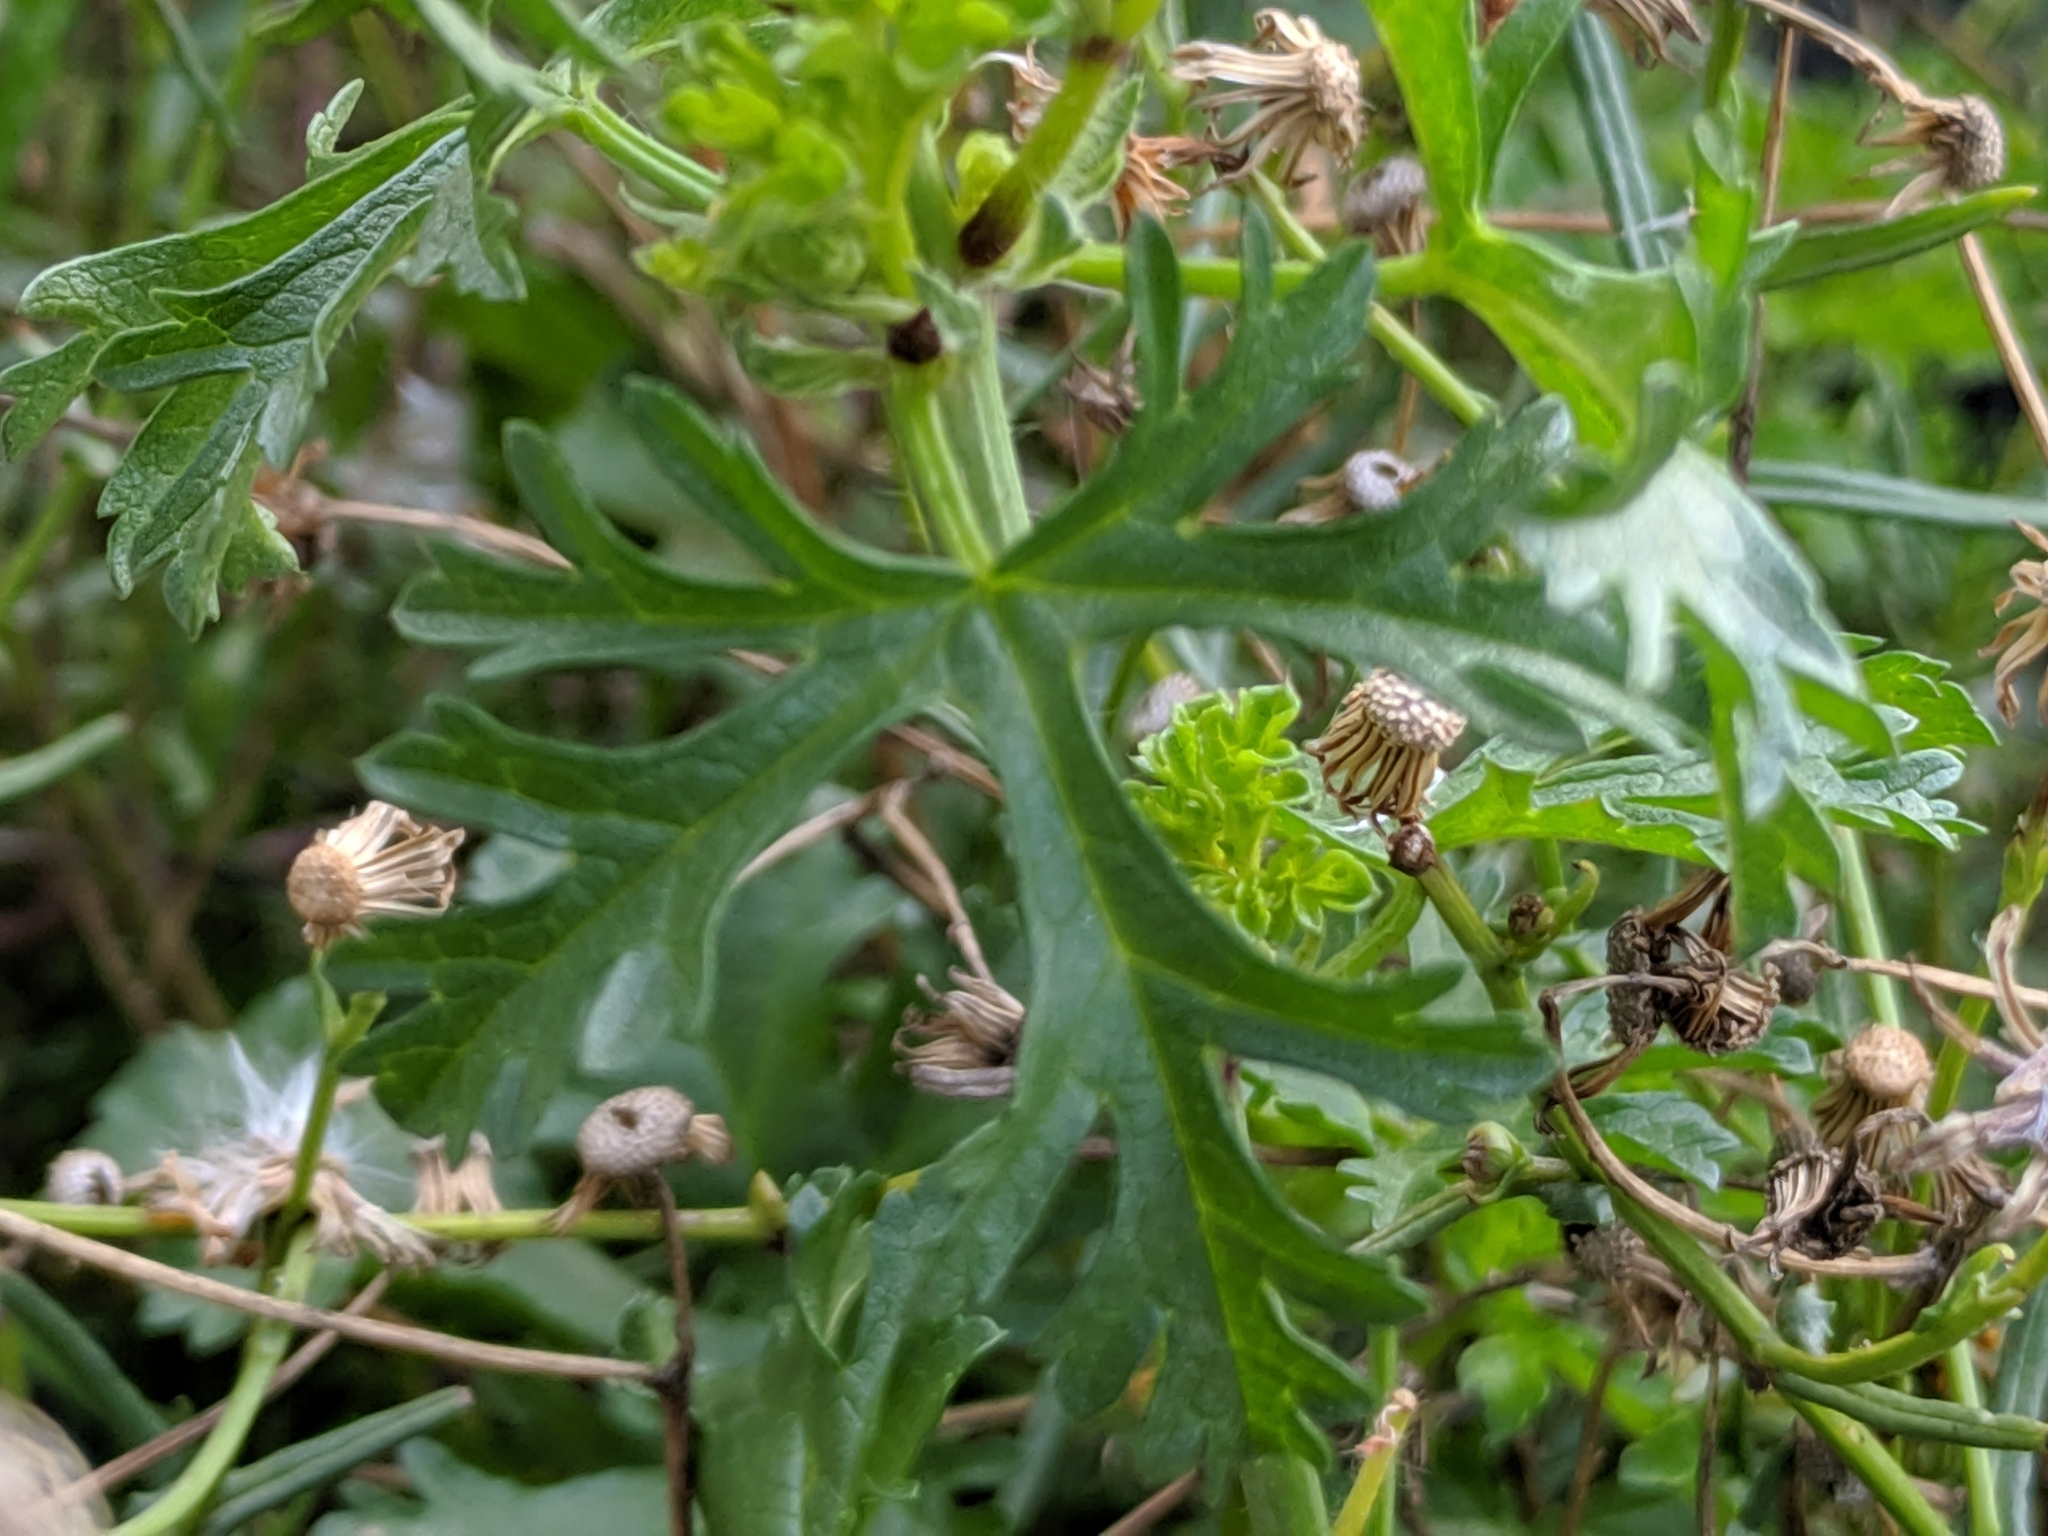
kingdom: Plantae
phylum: Tracheophyta
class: Magnoliopsida
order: Malvales
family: Malvaceae
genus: Malva
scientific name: Malva moschata
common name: Musk mallow
